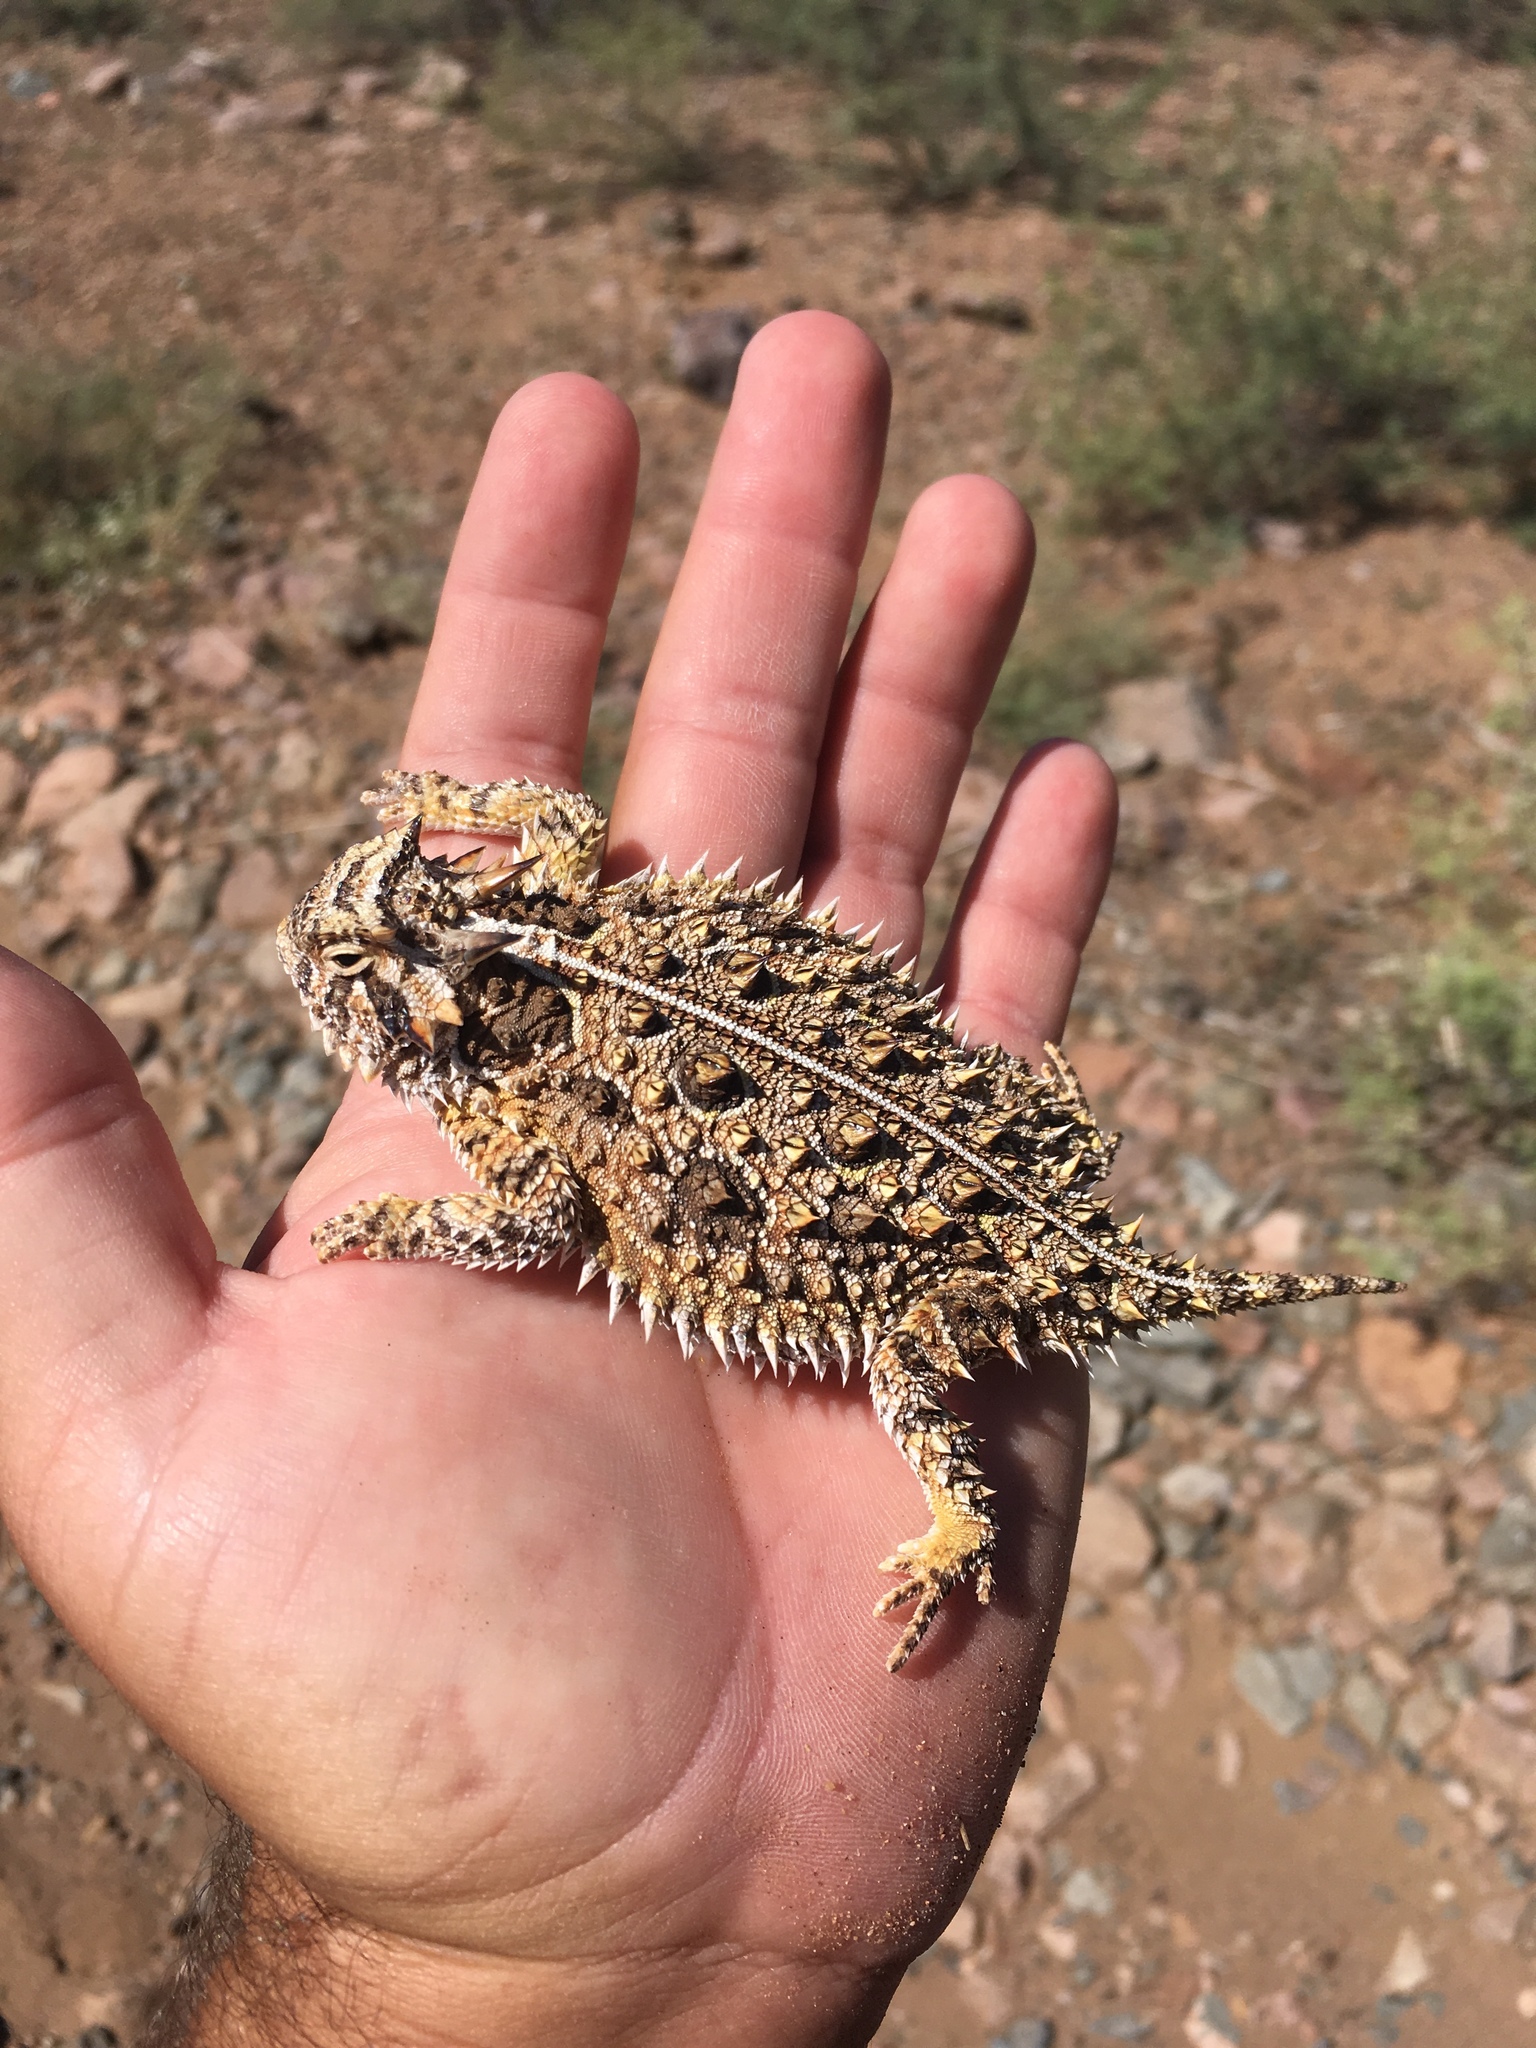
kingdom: Animalia
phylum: Chordata
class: Squamata
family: Phrynosomatidae
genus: Phrynosoma
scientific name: Phrynosoma cornutum
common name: Texas horned lizard
